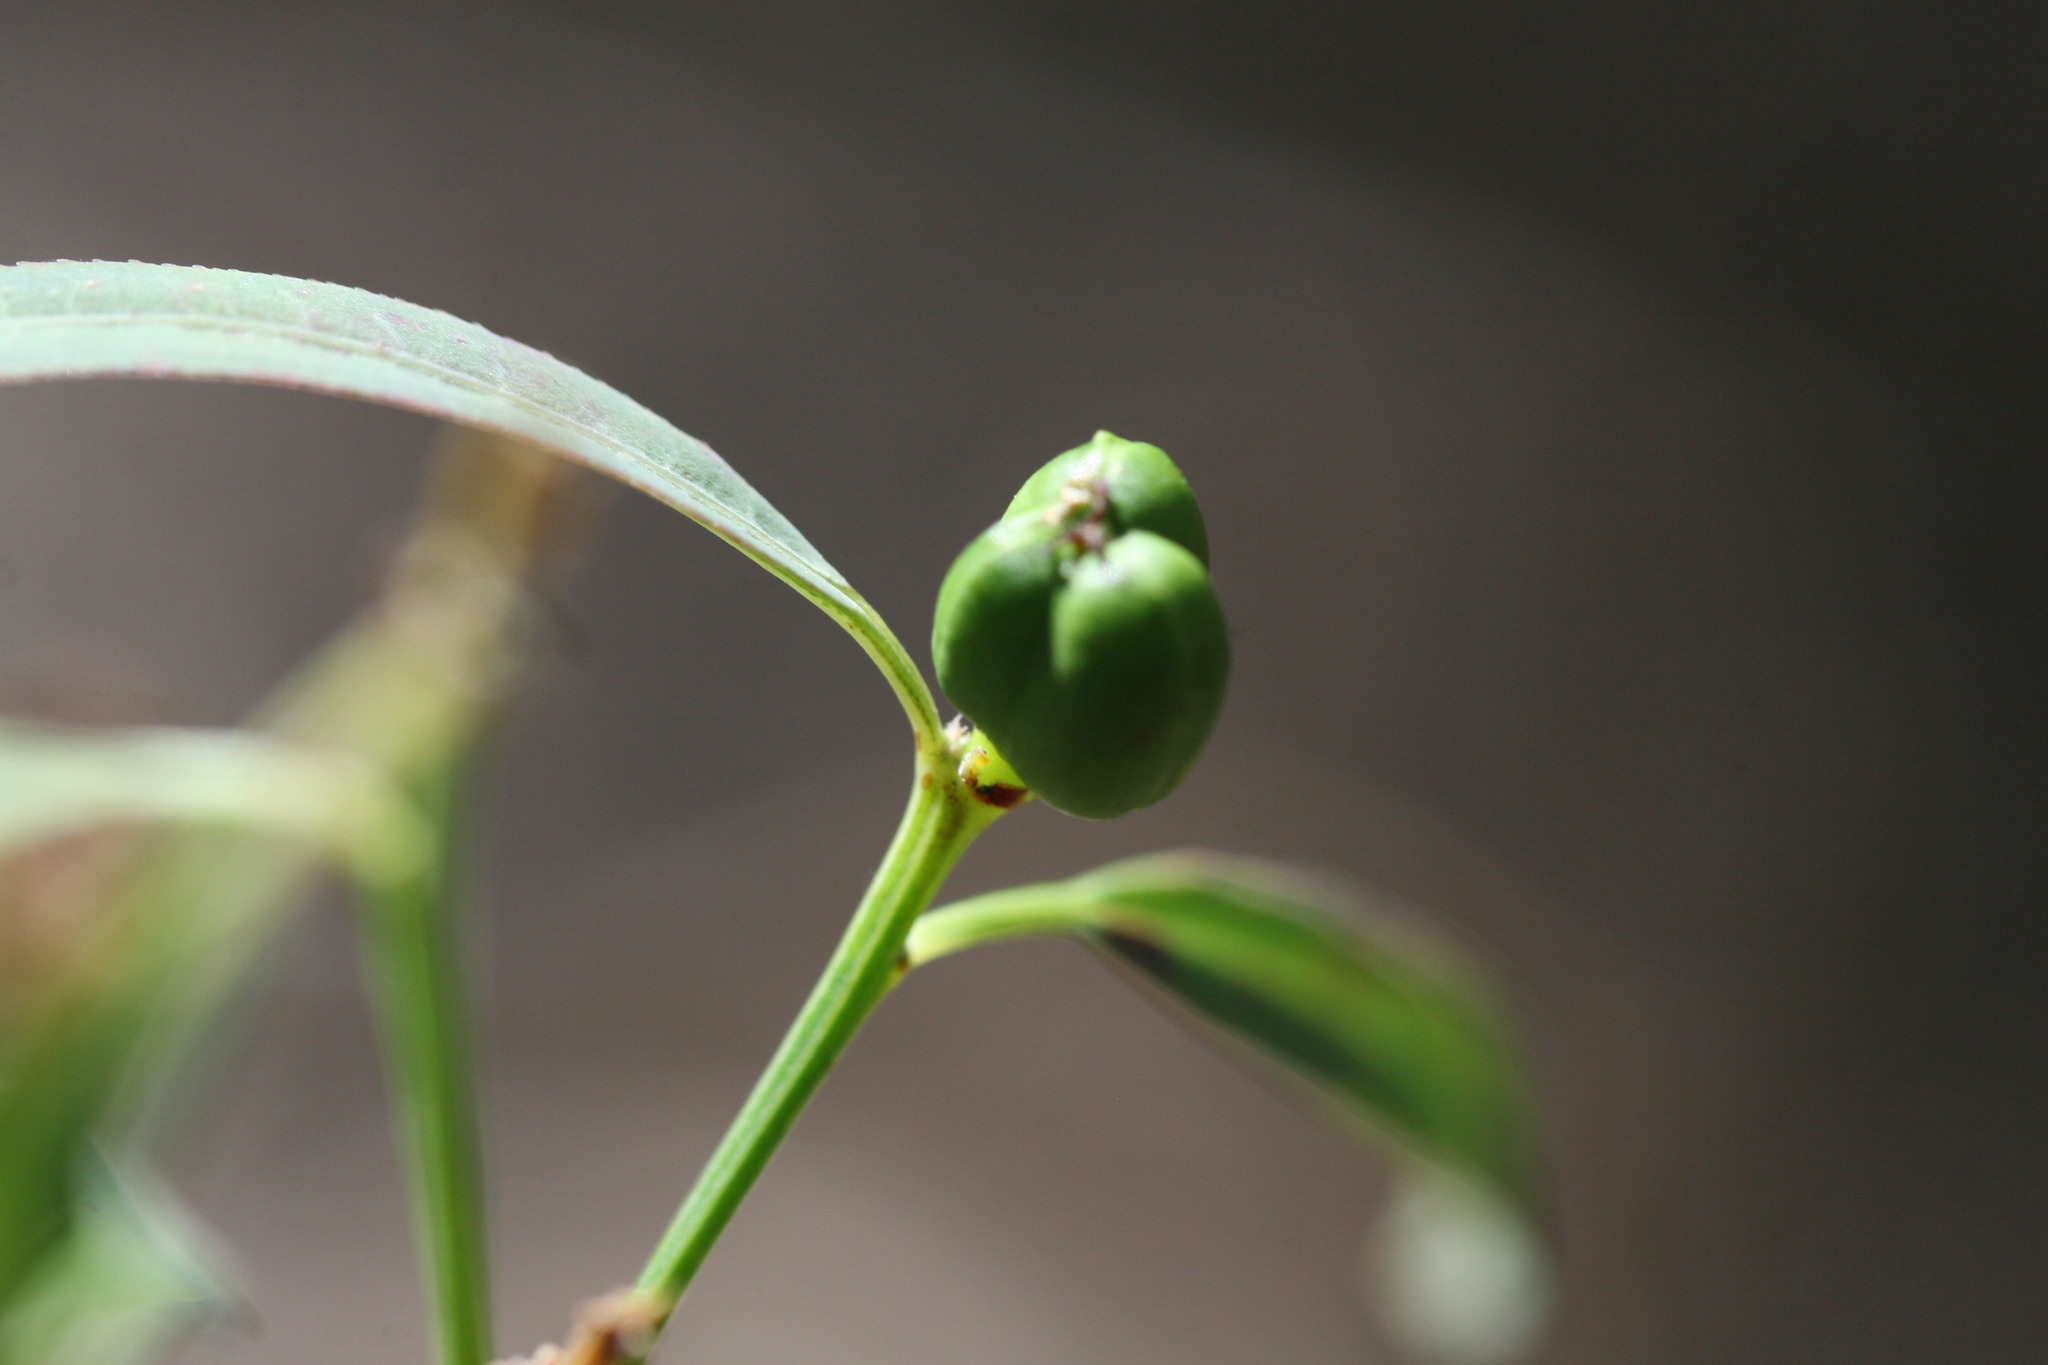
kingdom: Plantae
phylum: Tracheophyta
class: Magnoliopsida
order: Malpighiales
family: Euphorbiaceae
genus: Microstachys
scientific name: Microstachys chamaelea
